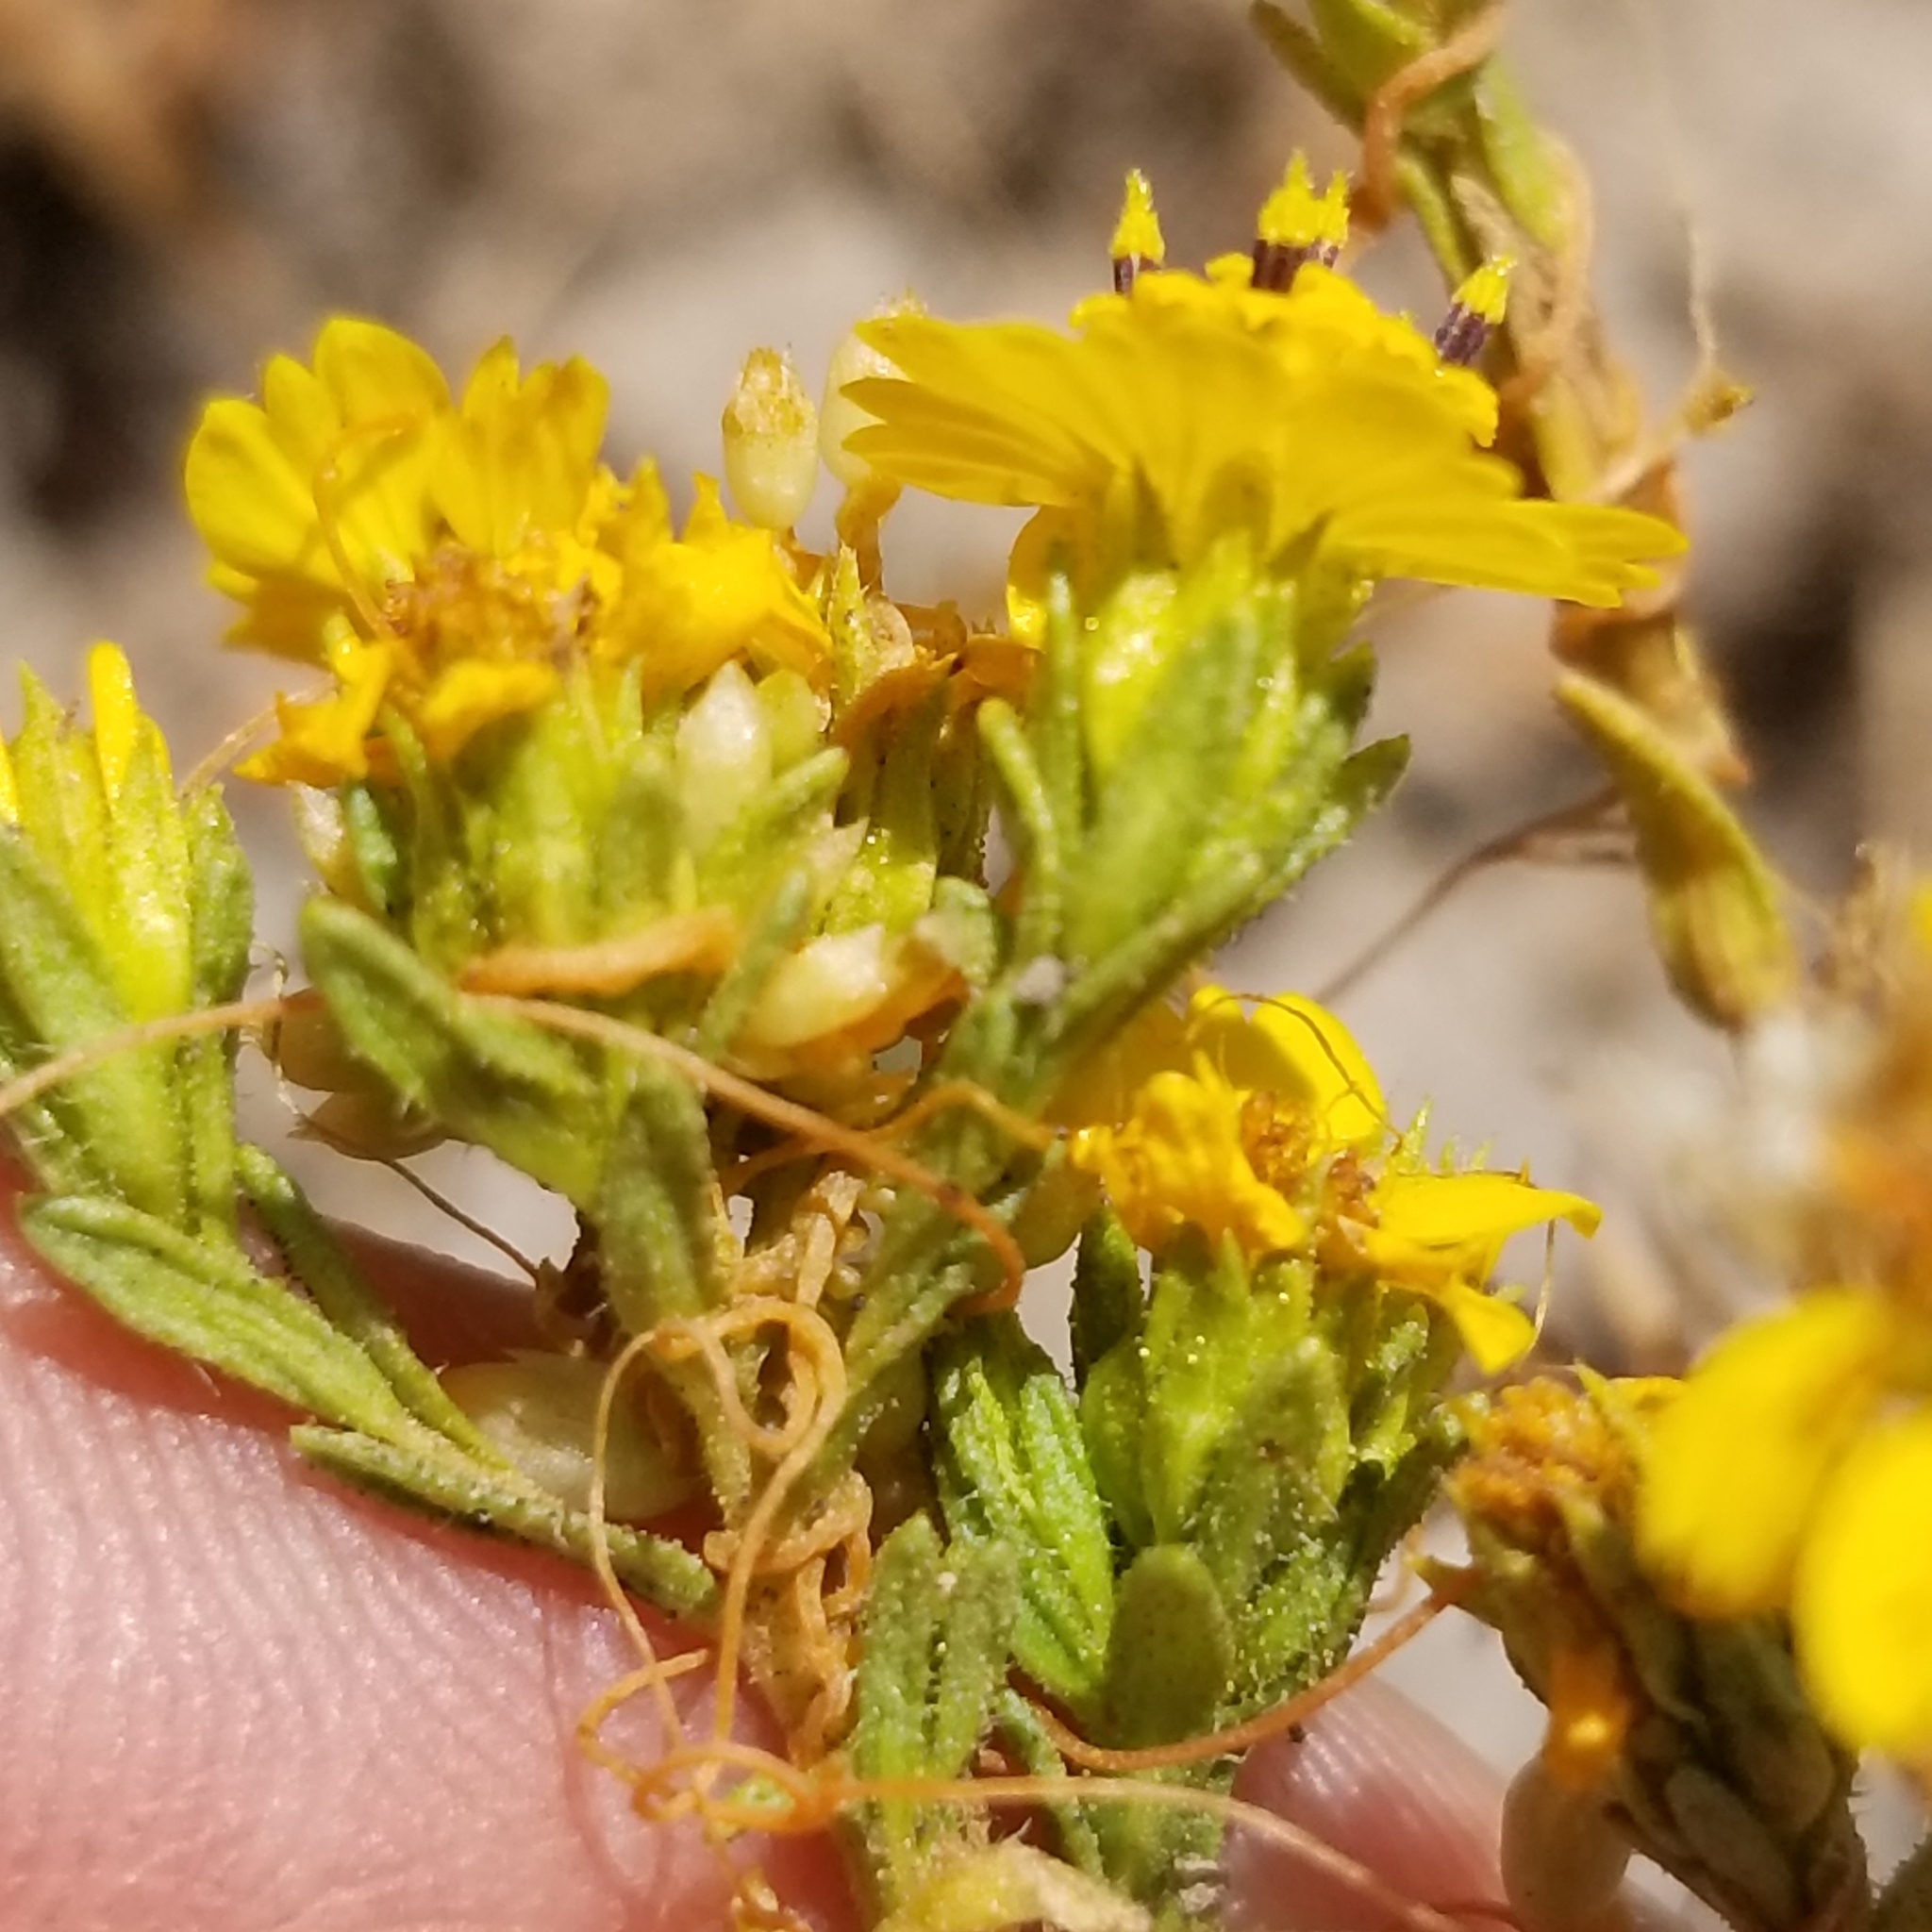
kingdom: Plantae
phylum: Tracheophyta
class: Magnoliopsida
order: Asterales
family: Asteraceae
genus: Deinandra
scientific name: Deinandra fasciculata
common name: Clustered tarweed
